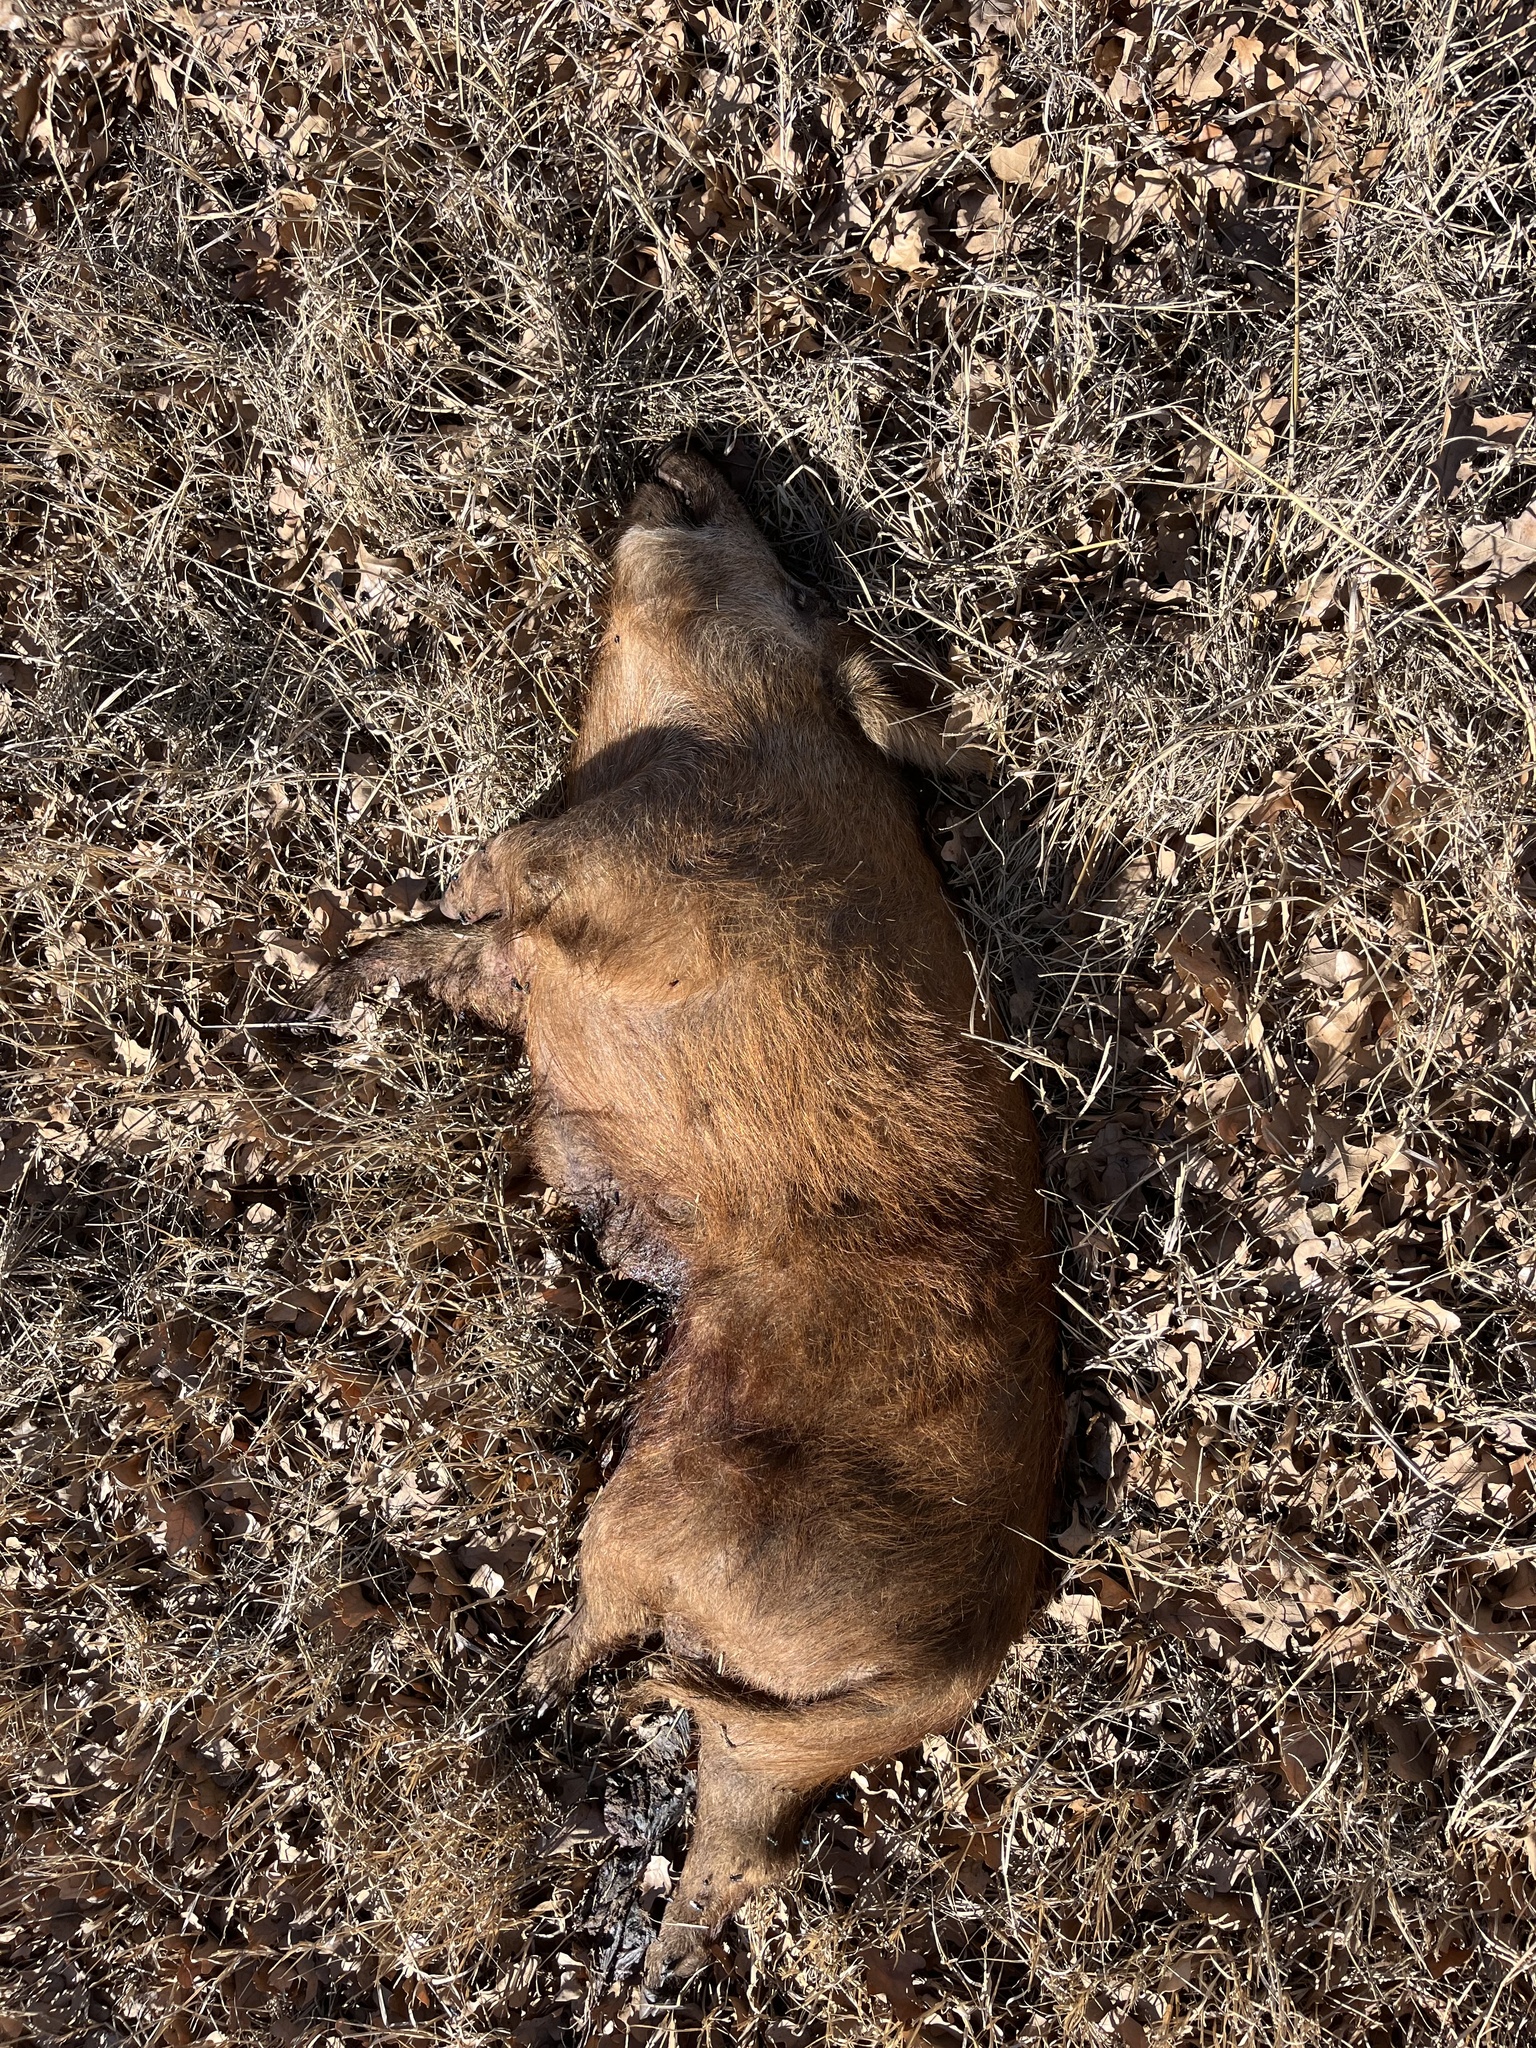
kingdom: Animalia
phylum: Chordata
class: Mammalia
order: Artiodactyla
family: Suidae
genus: Sus
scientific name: Sus scrofa
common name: Wild boar
